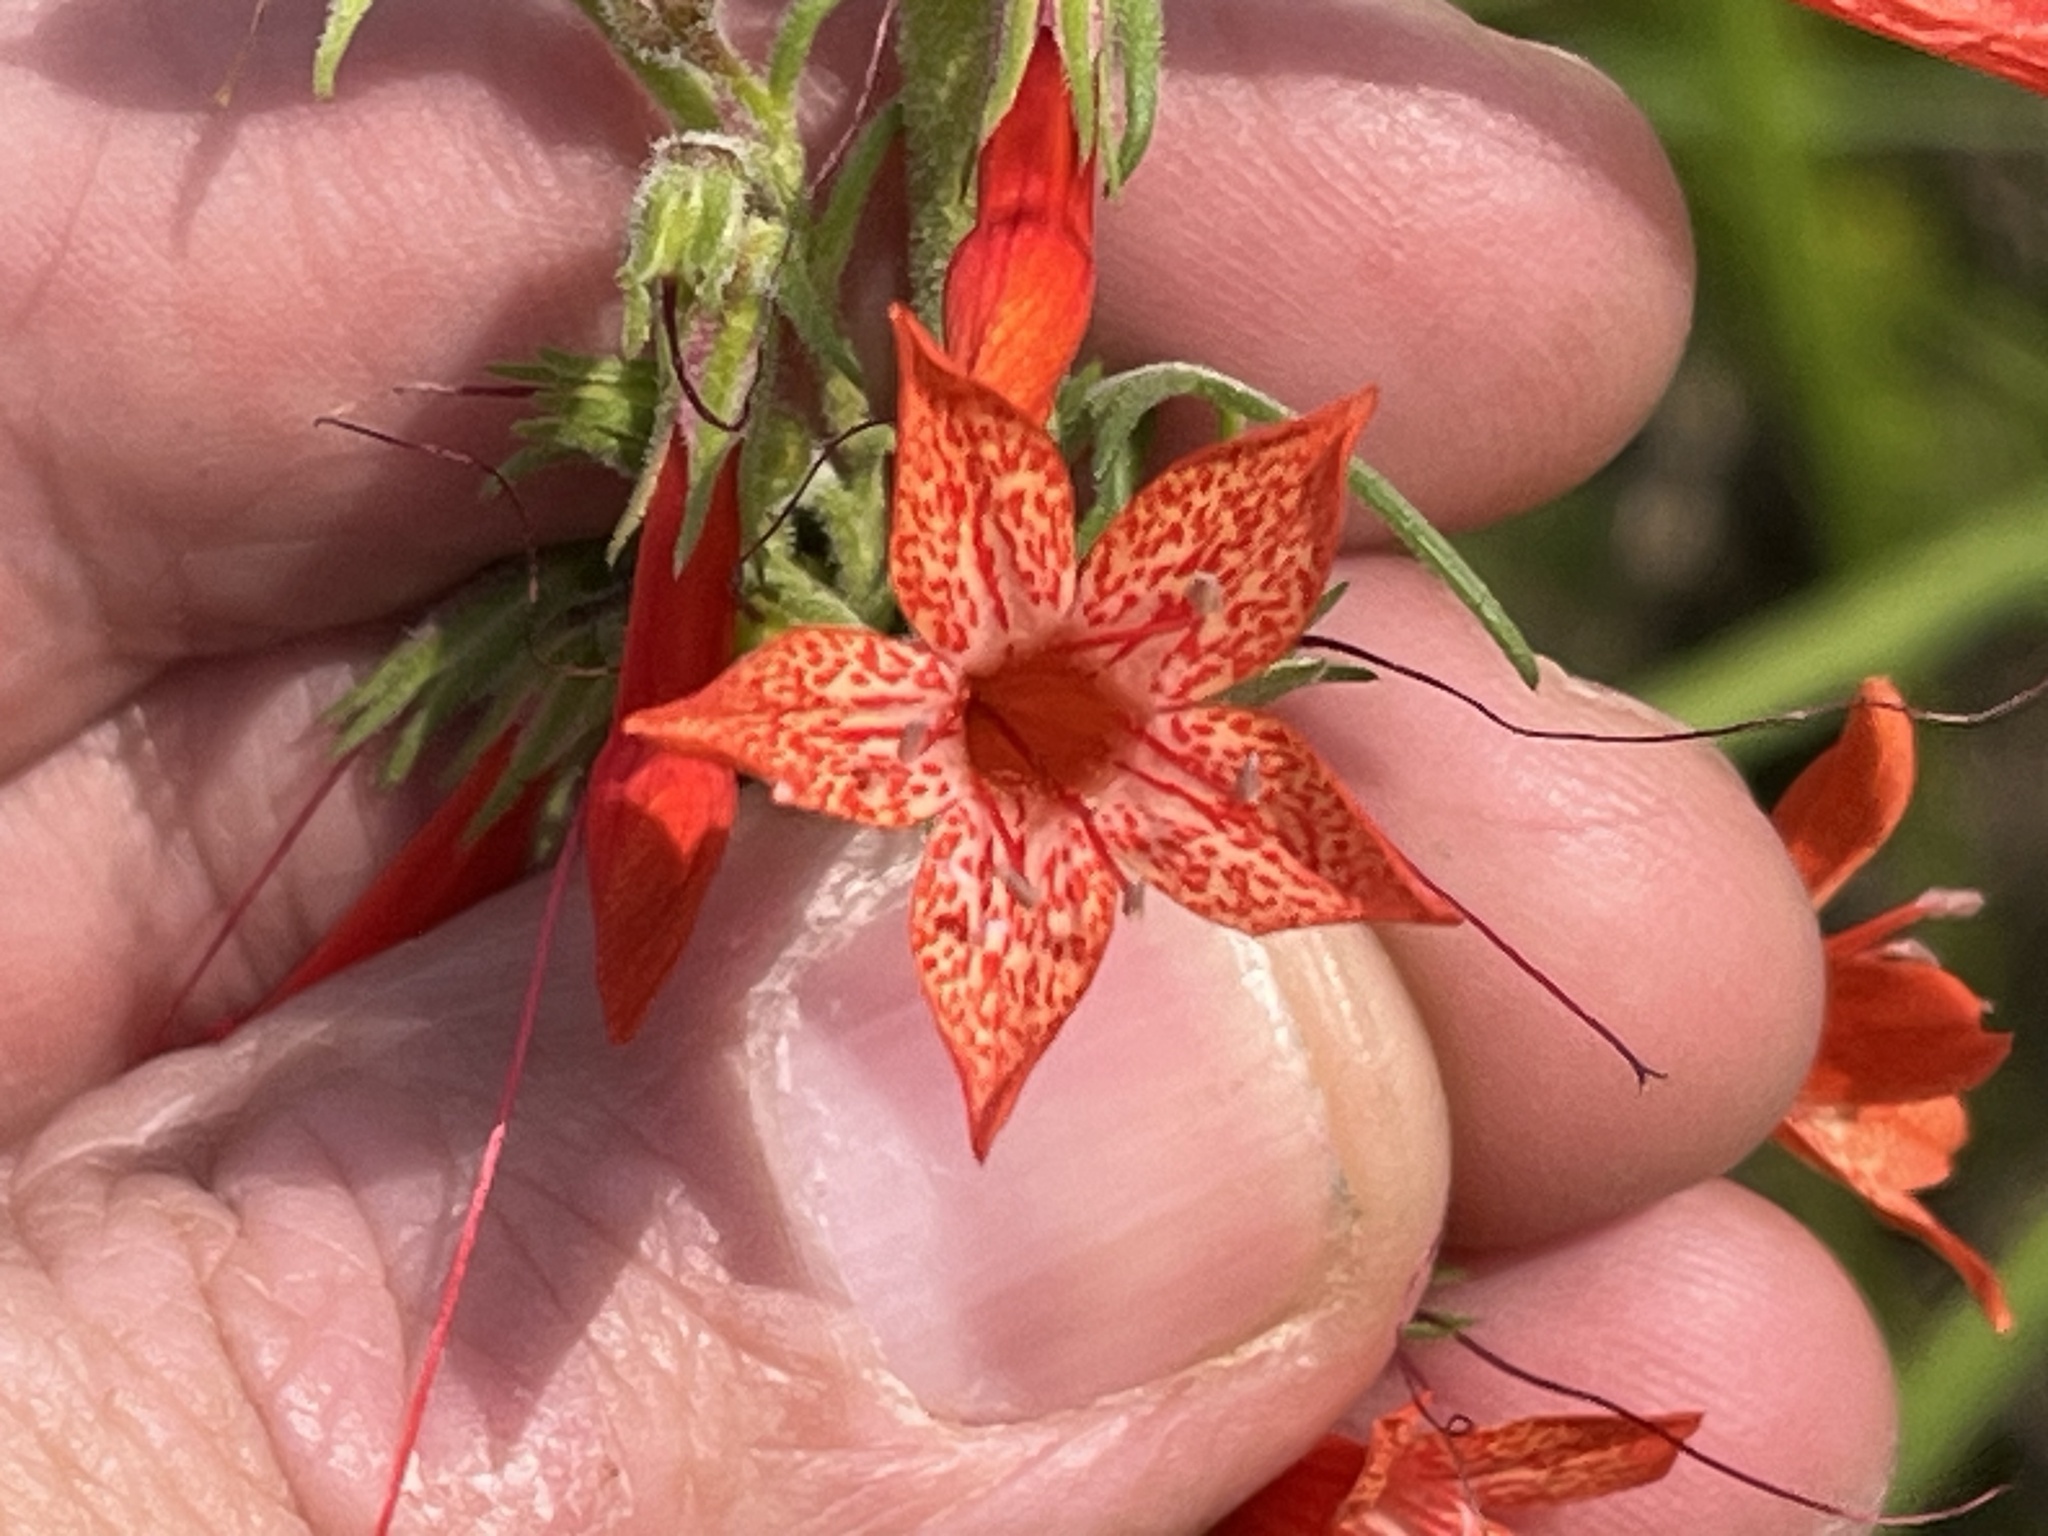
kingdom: Plantae
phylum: Tracheophyta
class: Magnoliopsida
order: Ericales
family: Polemoniaceae
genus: Ipomopsis
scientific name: Ipomopsis rubra
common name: Skyrocket
